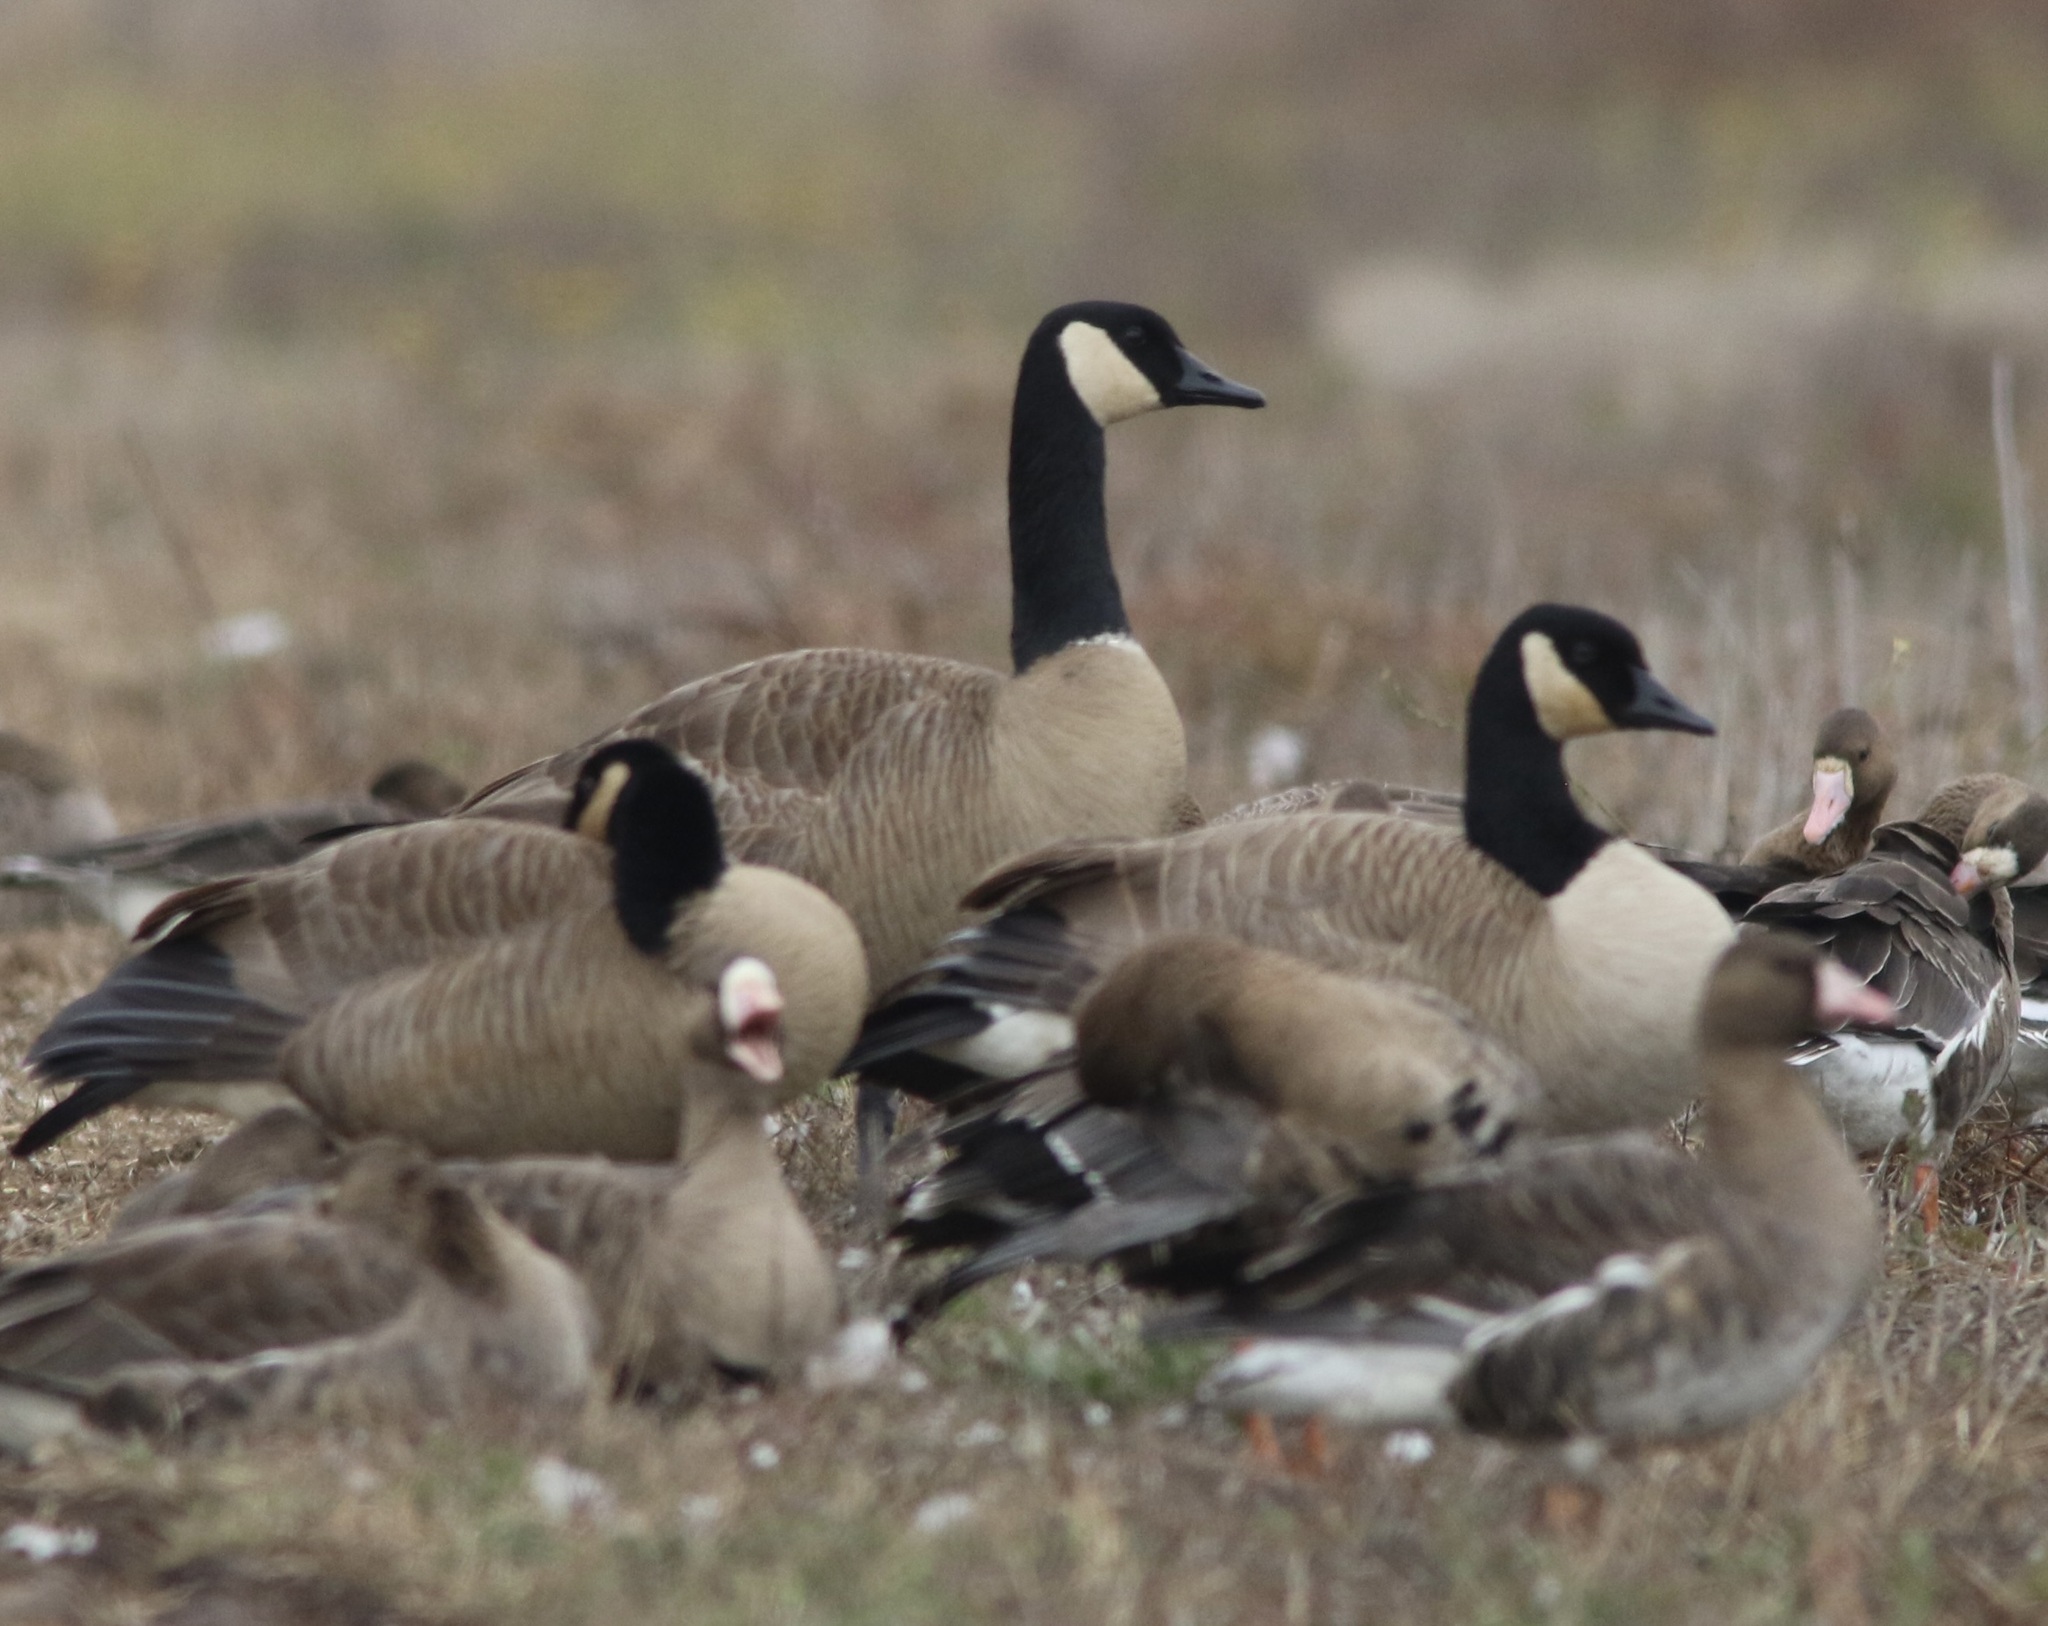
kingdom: Animalia
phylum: Chordata
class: Aves
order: Anseriformes
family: Anatidae
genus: Branta
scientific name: Branta canadensis
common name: Canada goose
